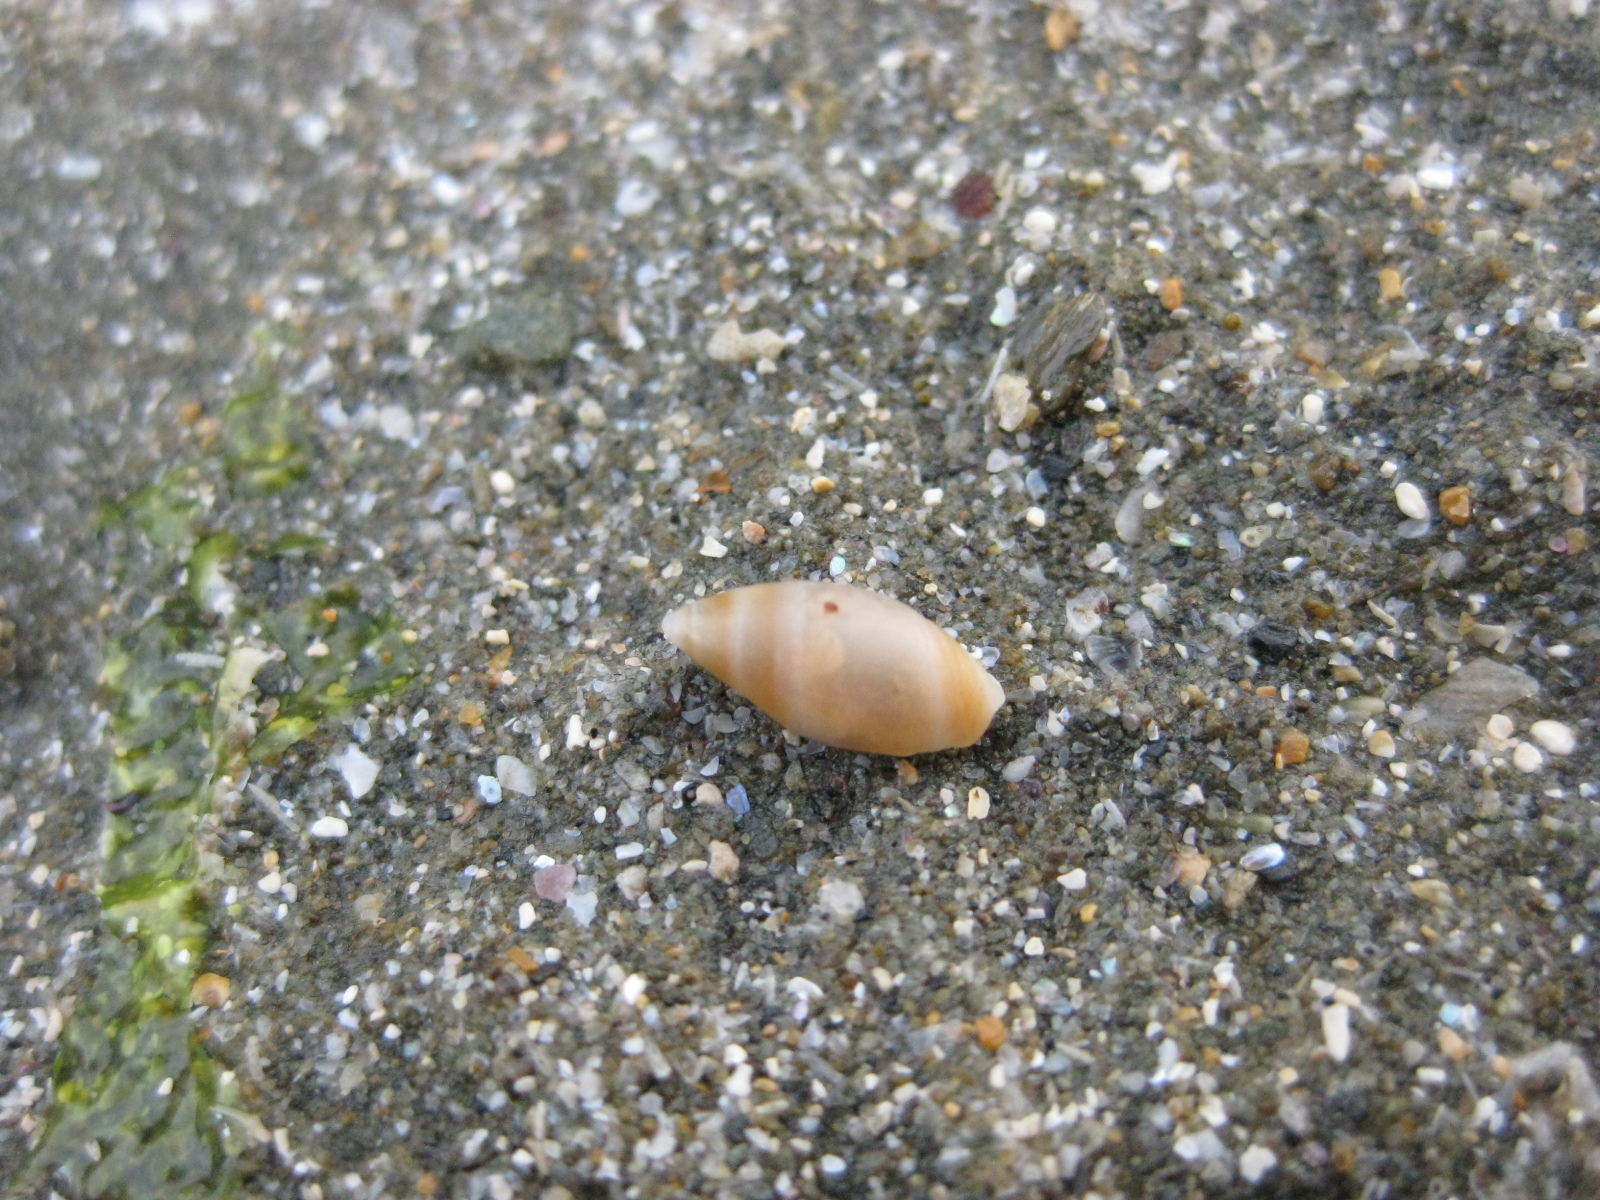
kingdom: Animalia
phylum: Mollusca
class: Gastropoda
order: Neogastropoda
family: Ancillariidae
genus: Amalda
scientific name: Amalda novaezelandiae
